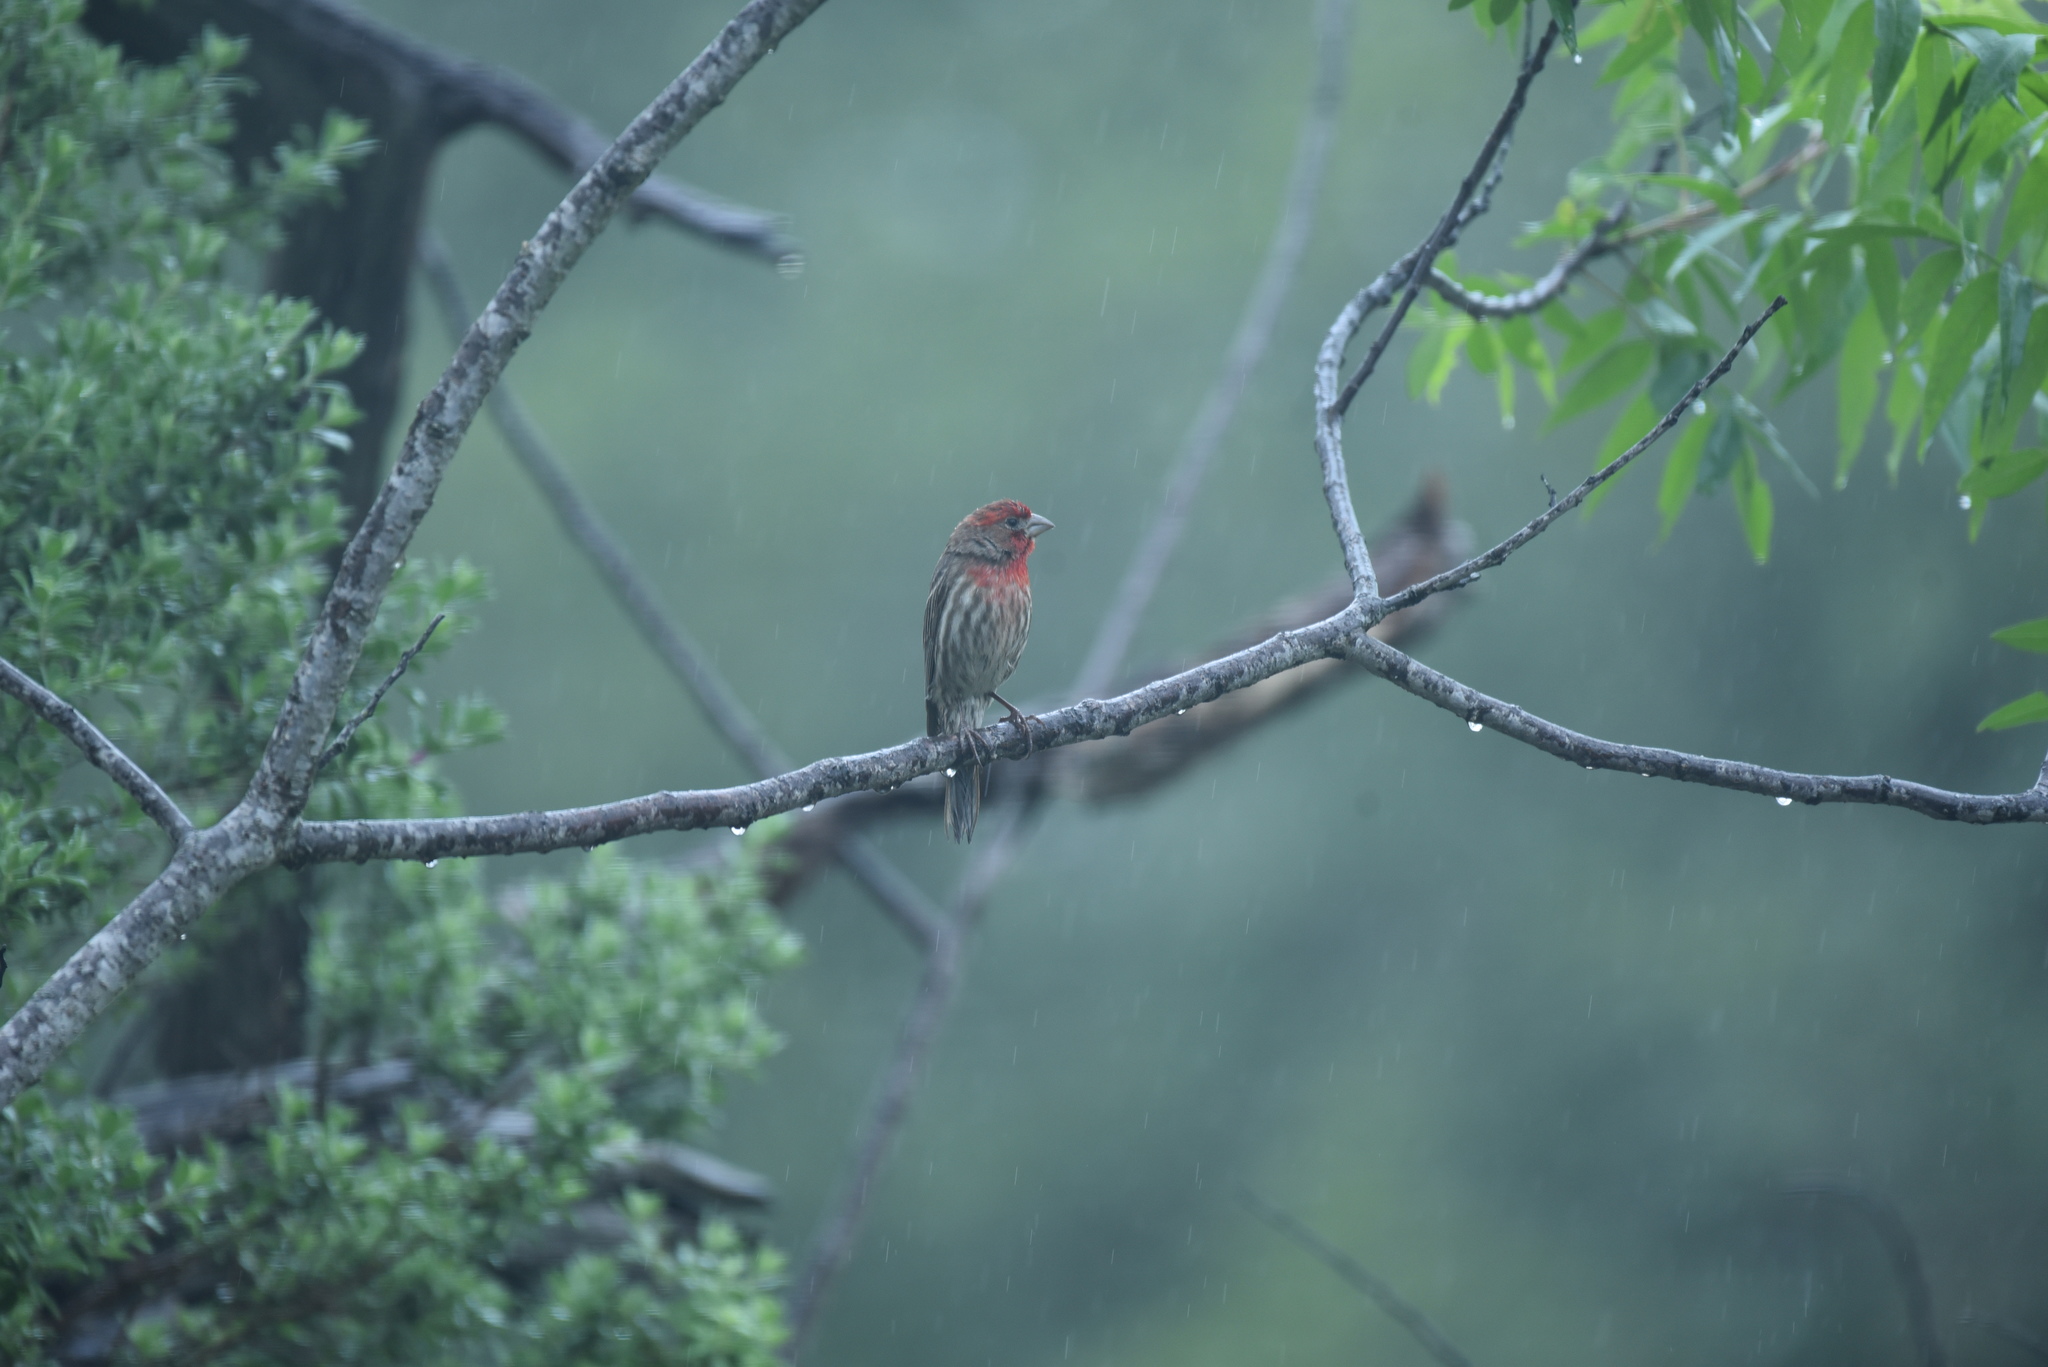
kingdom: Animalia
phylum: Chordata
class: Aves
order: Passeriformes
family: Fringillidae
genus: Haemorhous
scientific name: Haemorhous mexicanus
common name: House finch
